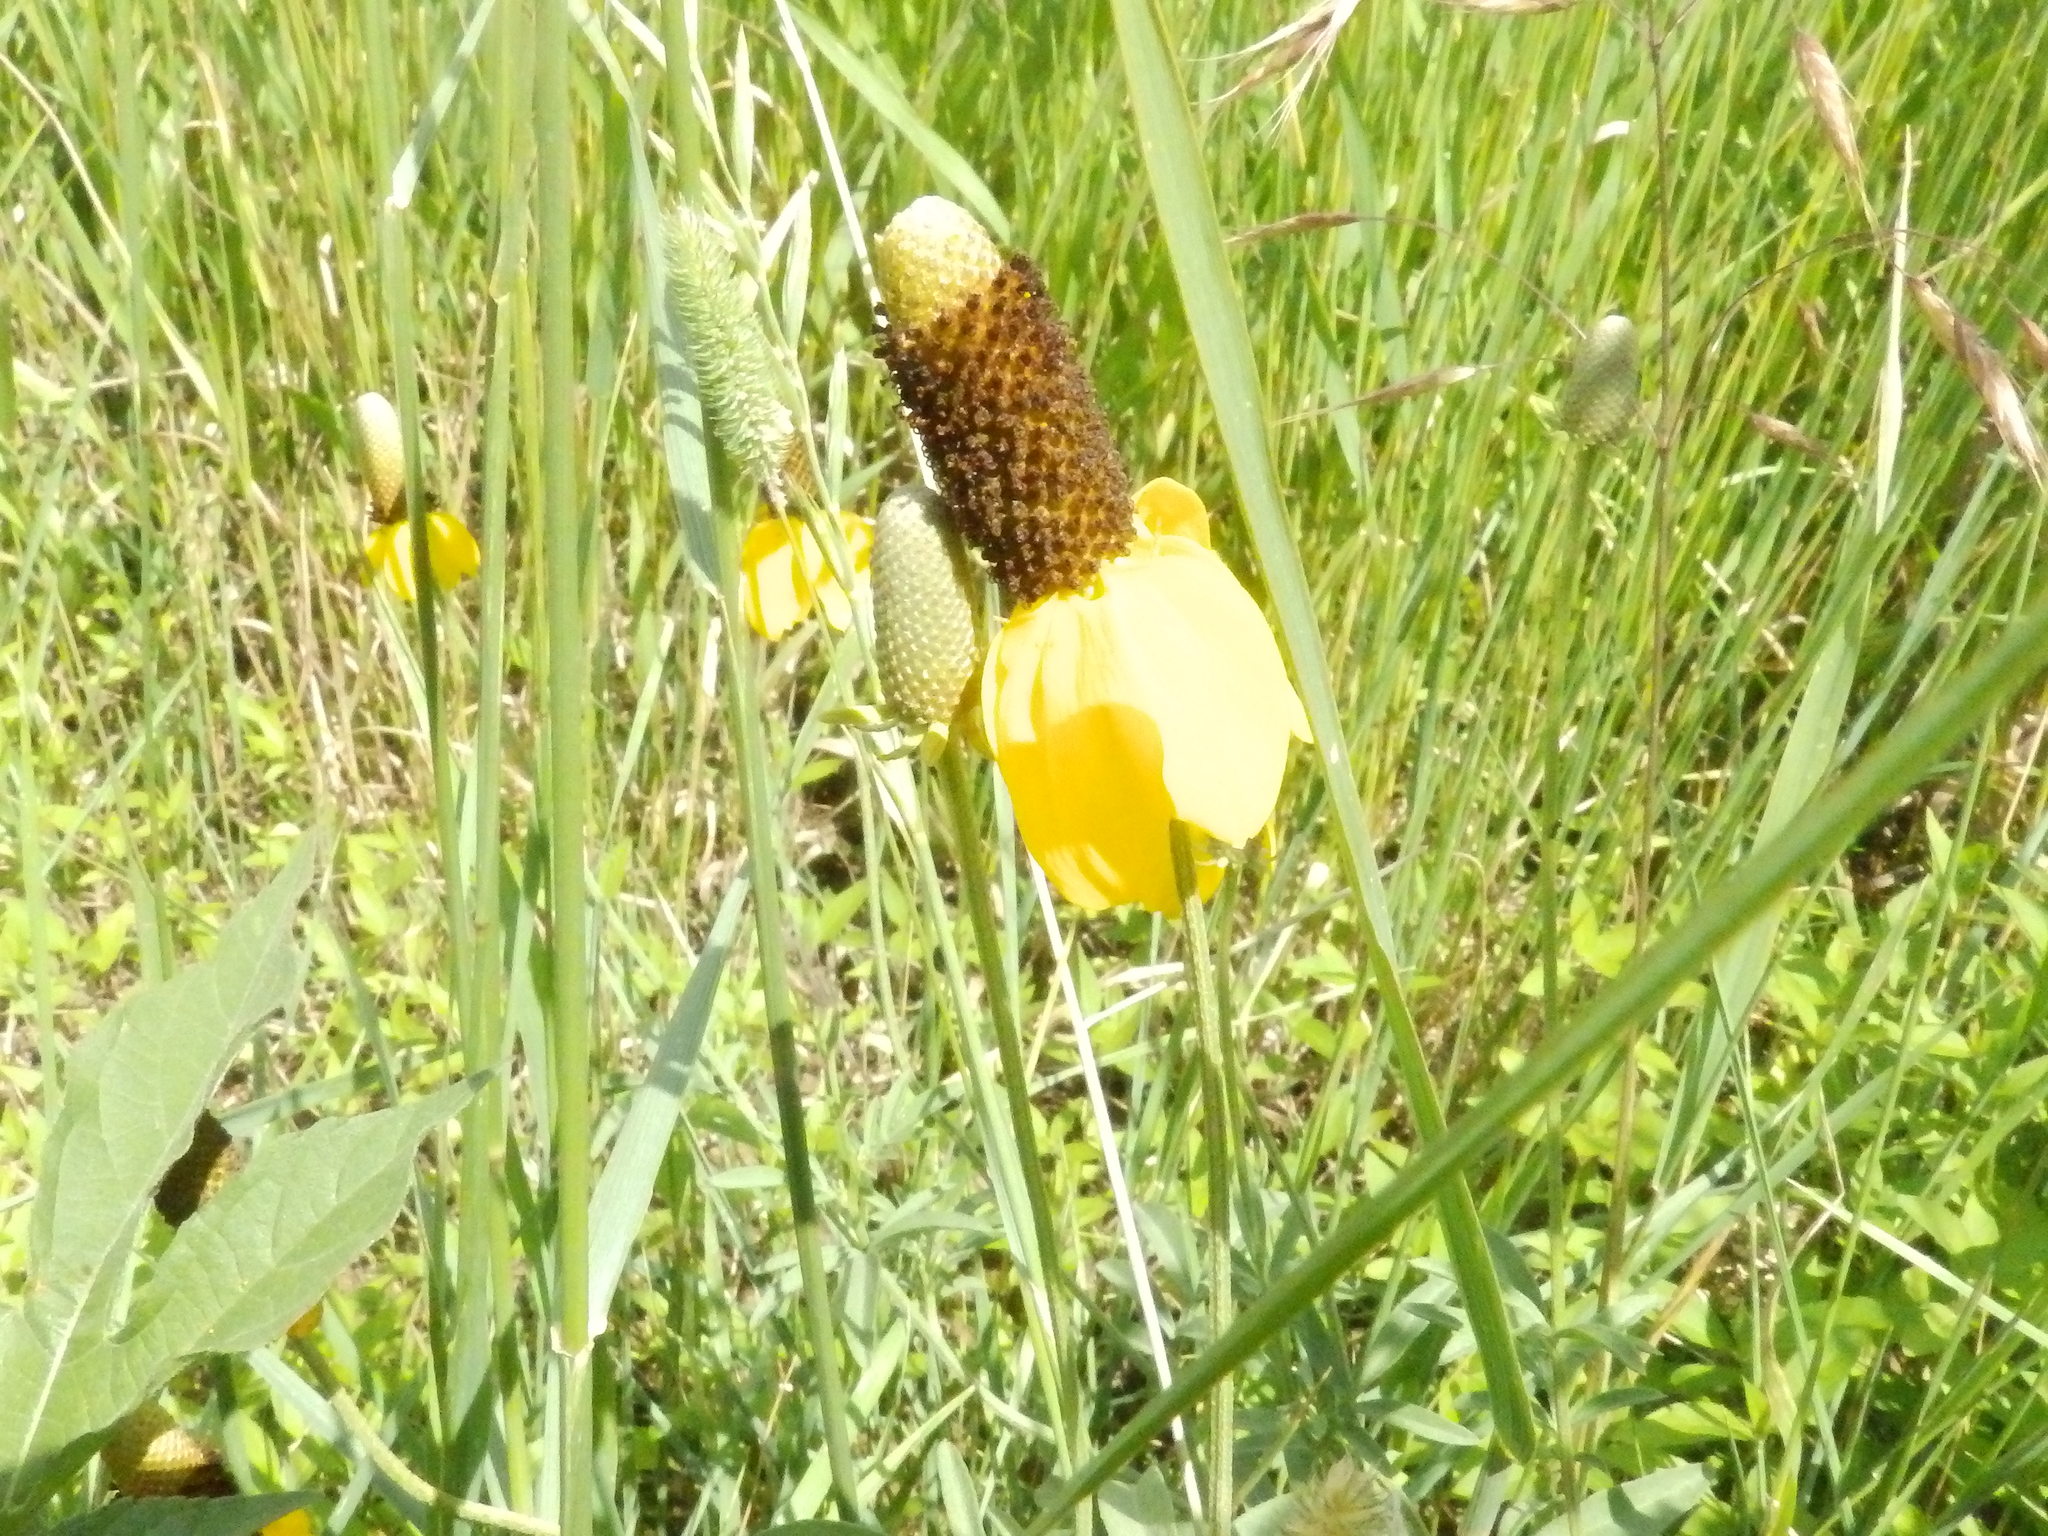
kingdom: Plantae
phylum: Tracheophyta
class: Magnoliopsida
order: Asterales
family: Asteraceae
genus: Ratibida
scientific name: Ratibida columnifera
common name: Prairie coneflower
